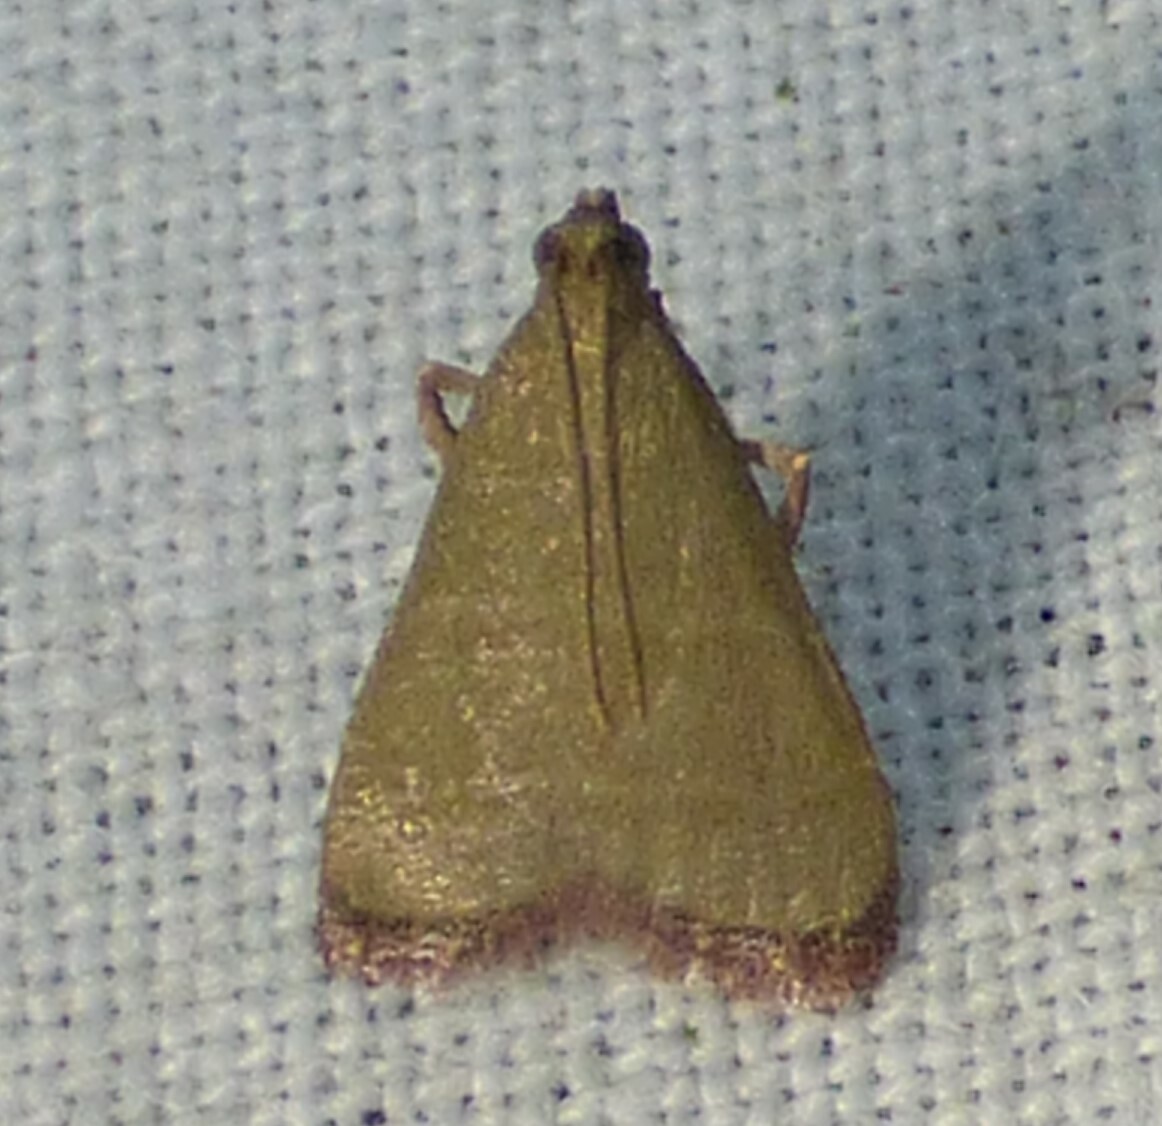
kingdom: Animalia
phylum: Arthropoda
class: Insecta
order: Lepidoptera
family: Pyralidae
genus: Arta
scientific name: Arta olivalis
